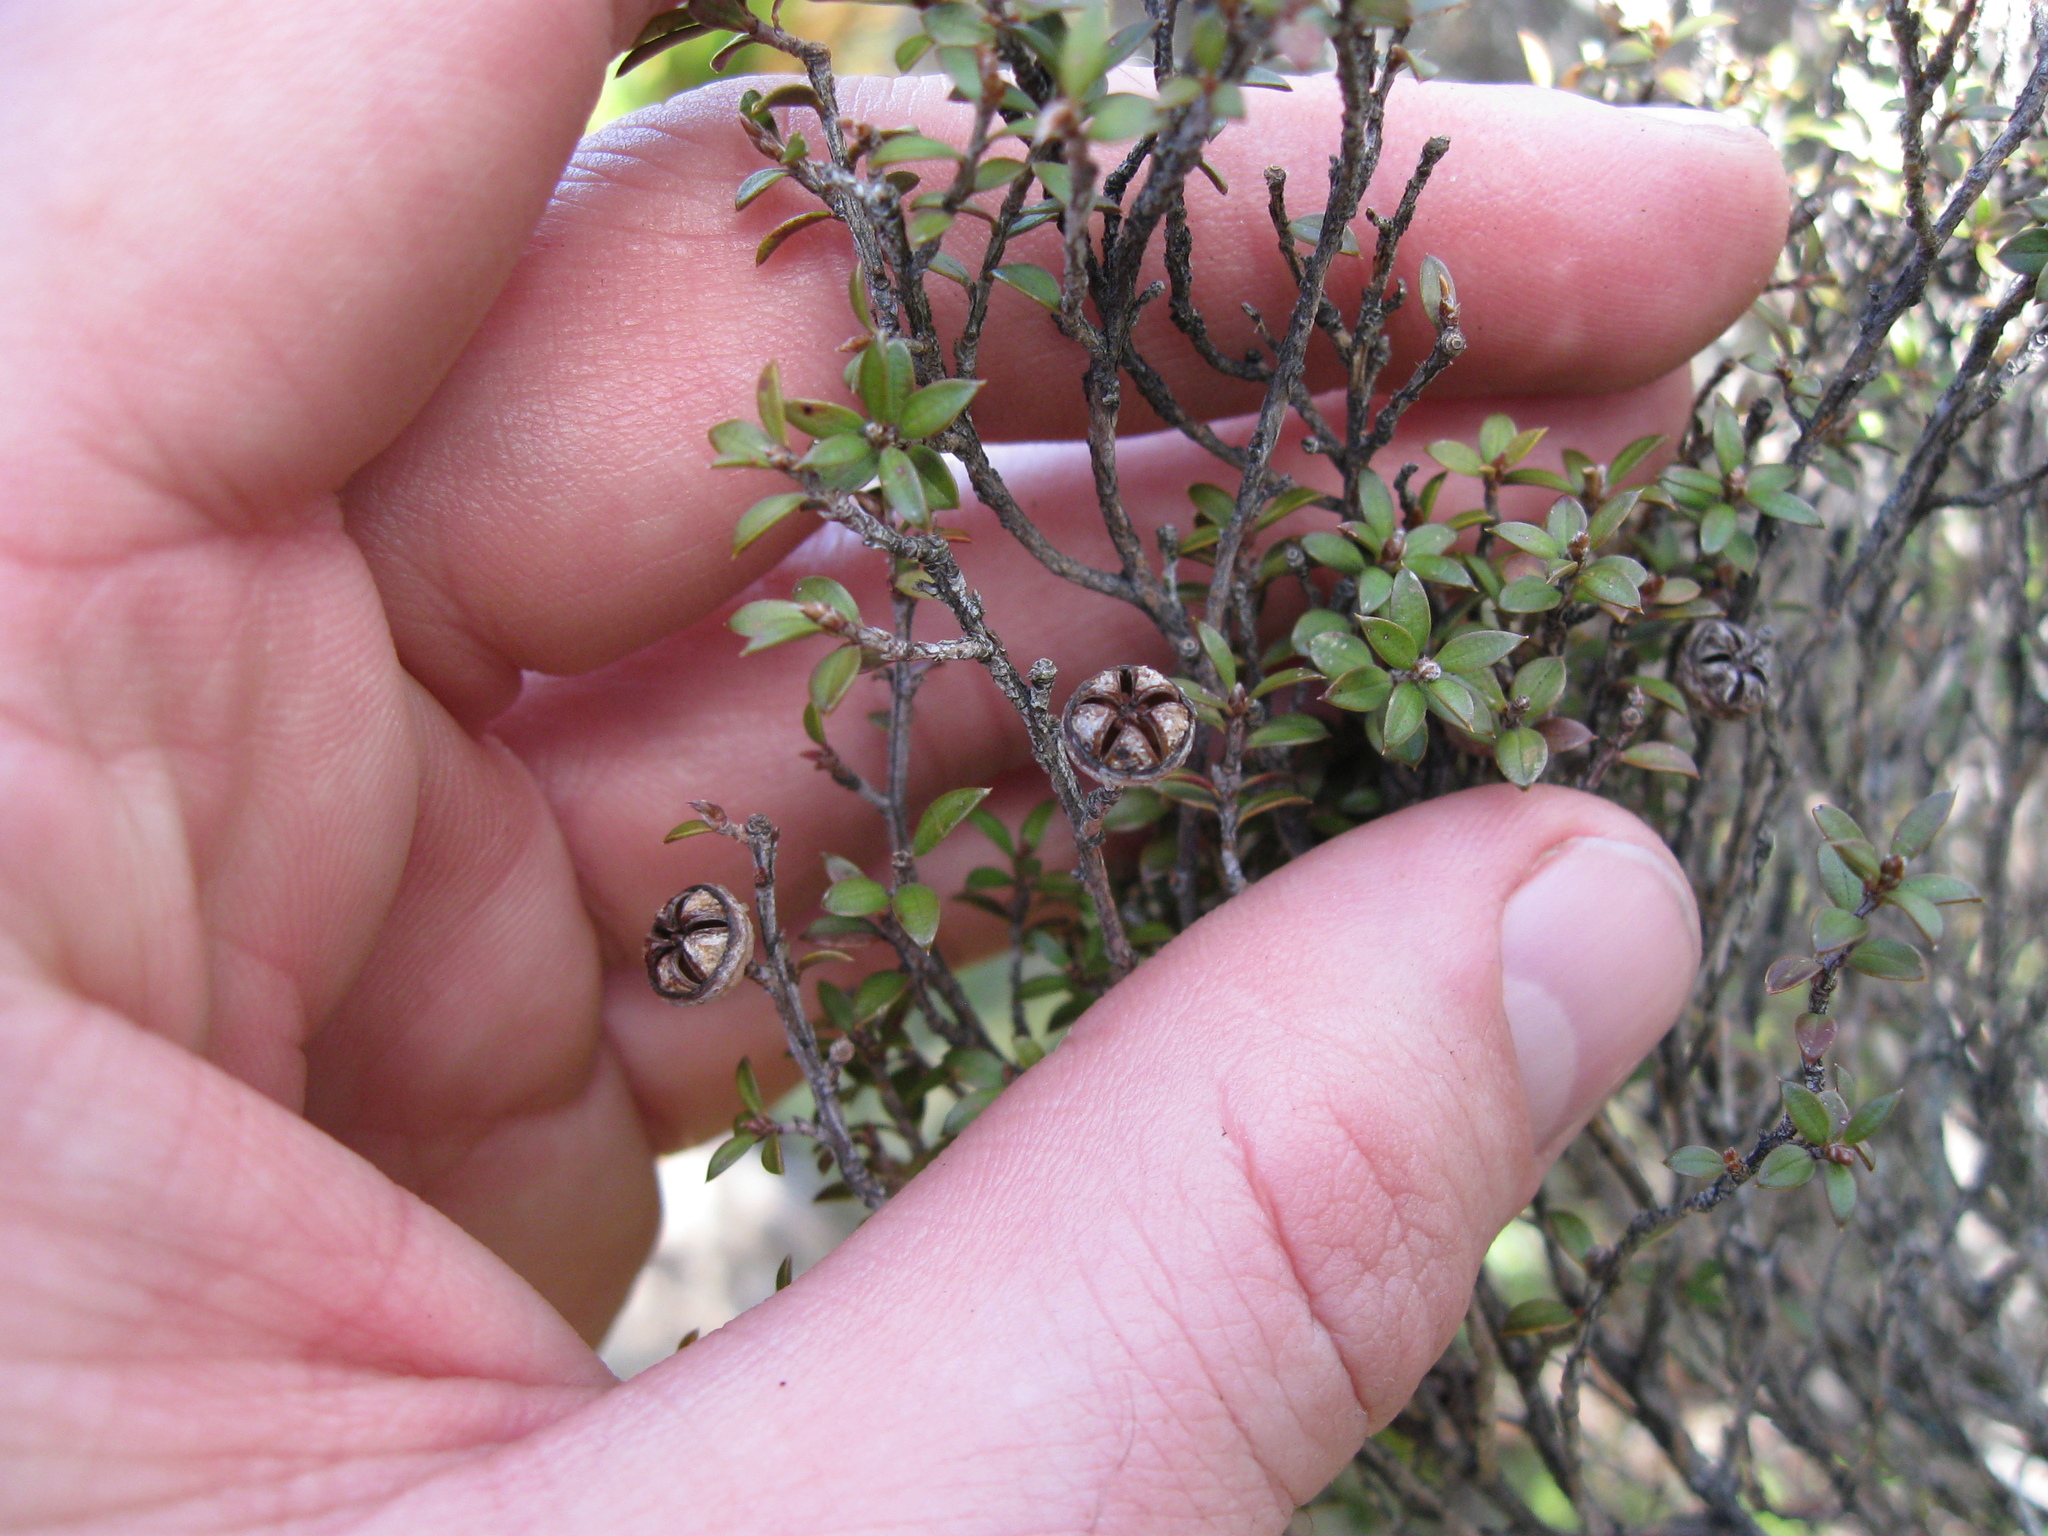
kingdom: Plantae
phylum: Tracheophyta
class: Magnoliopsida
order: Myrtales
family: Myrtaceae
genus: Leptospermum
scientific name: Leptospermum scoparium
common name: Broom tea-tree
